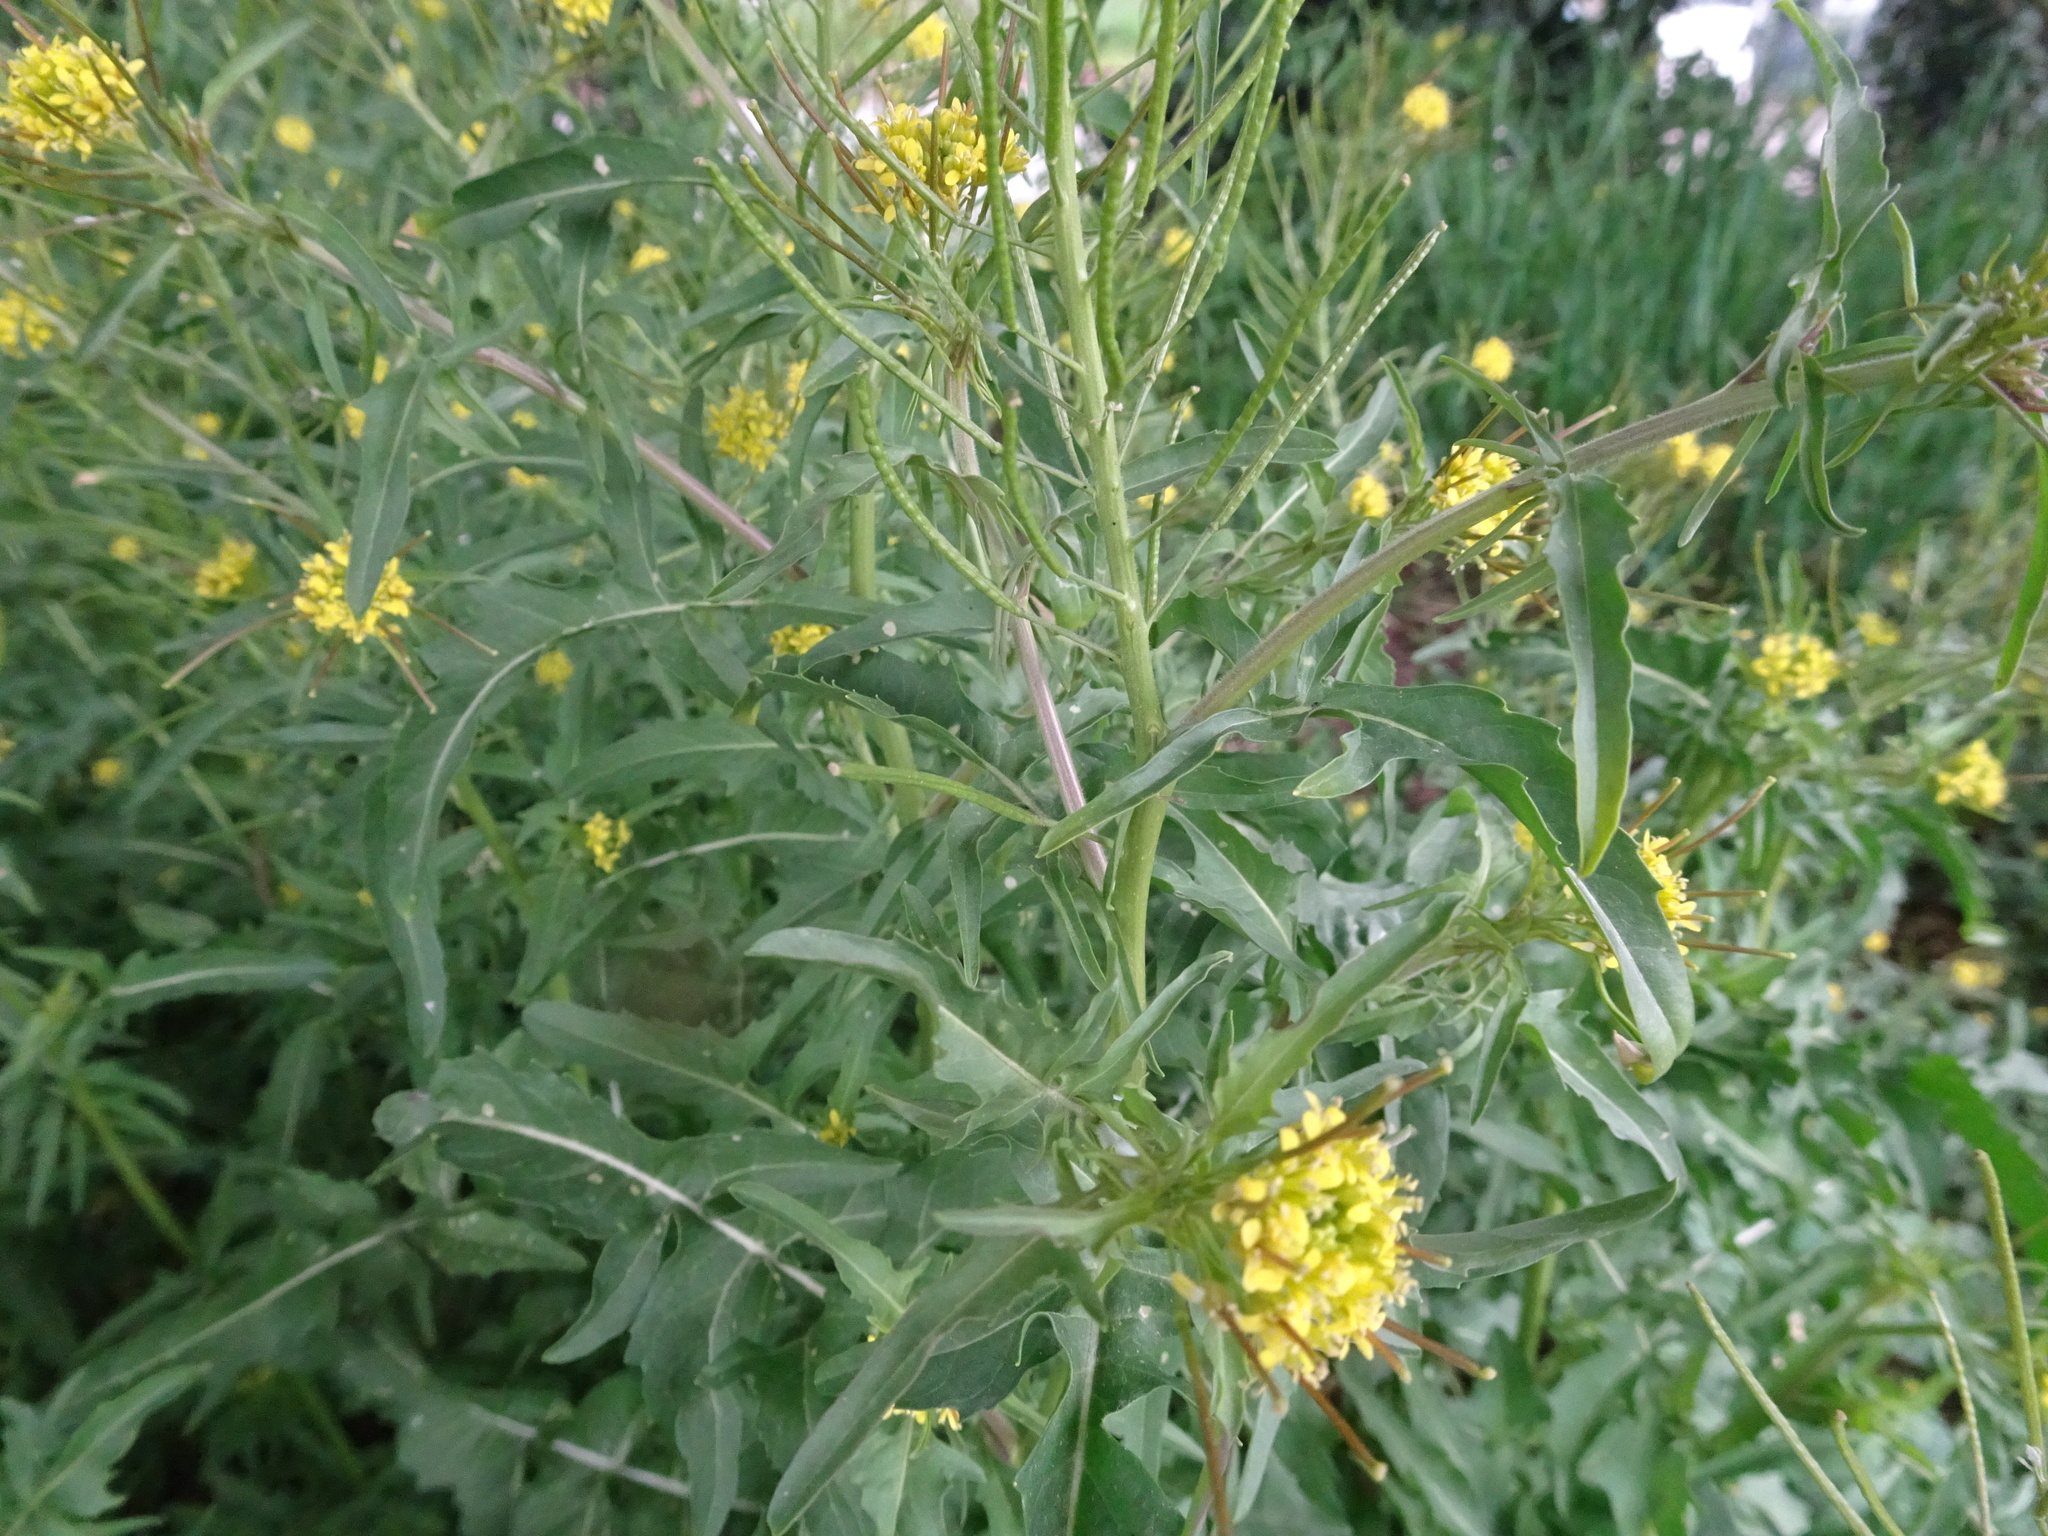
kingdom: Plantae
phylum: Tracheophyta
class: Magnoliopsida
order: Brassicales
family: Brassicaceae
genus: Sisymbrium
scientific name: Sisymbrium irio
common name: London rocket
